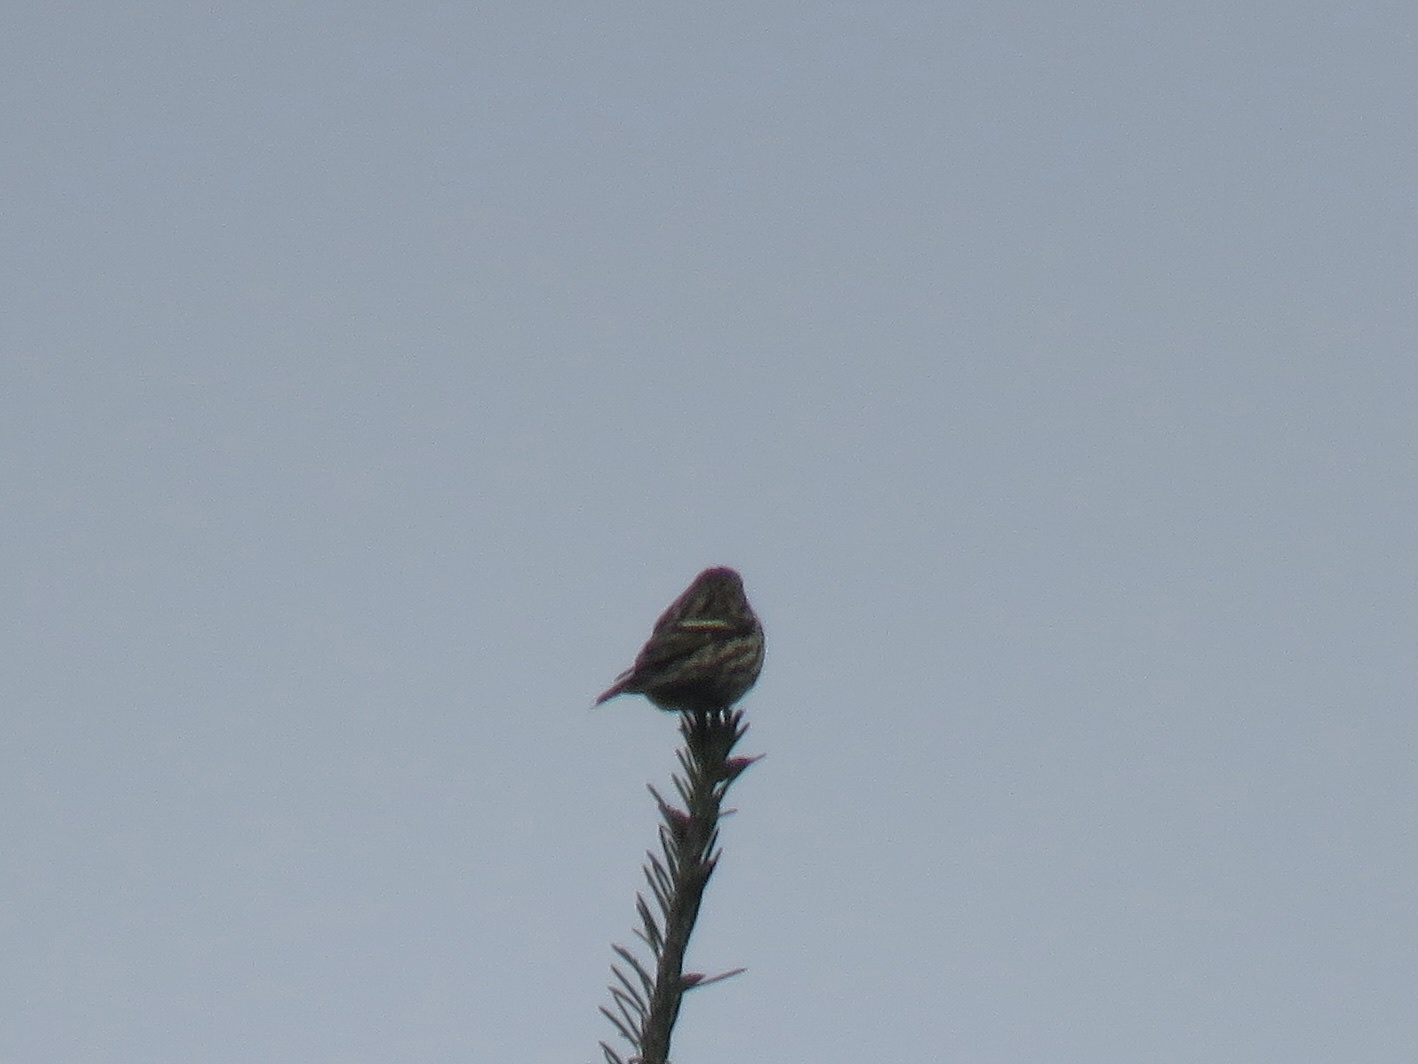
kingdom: Animalia
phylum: Chordata
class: Aves
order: Passeriformes
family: Fringillidae
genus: Spinus
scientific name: Spinus pinus
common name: Pine siskin
